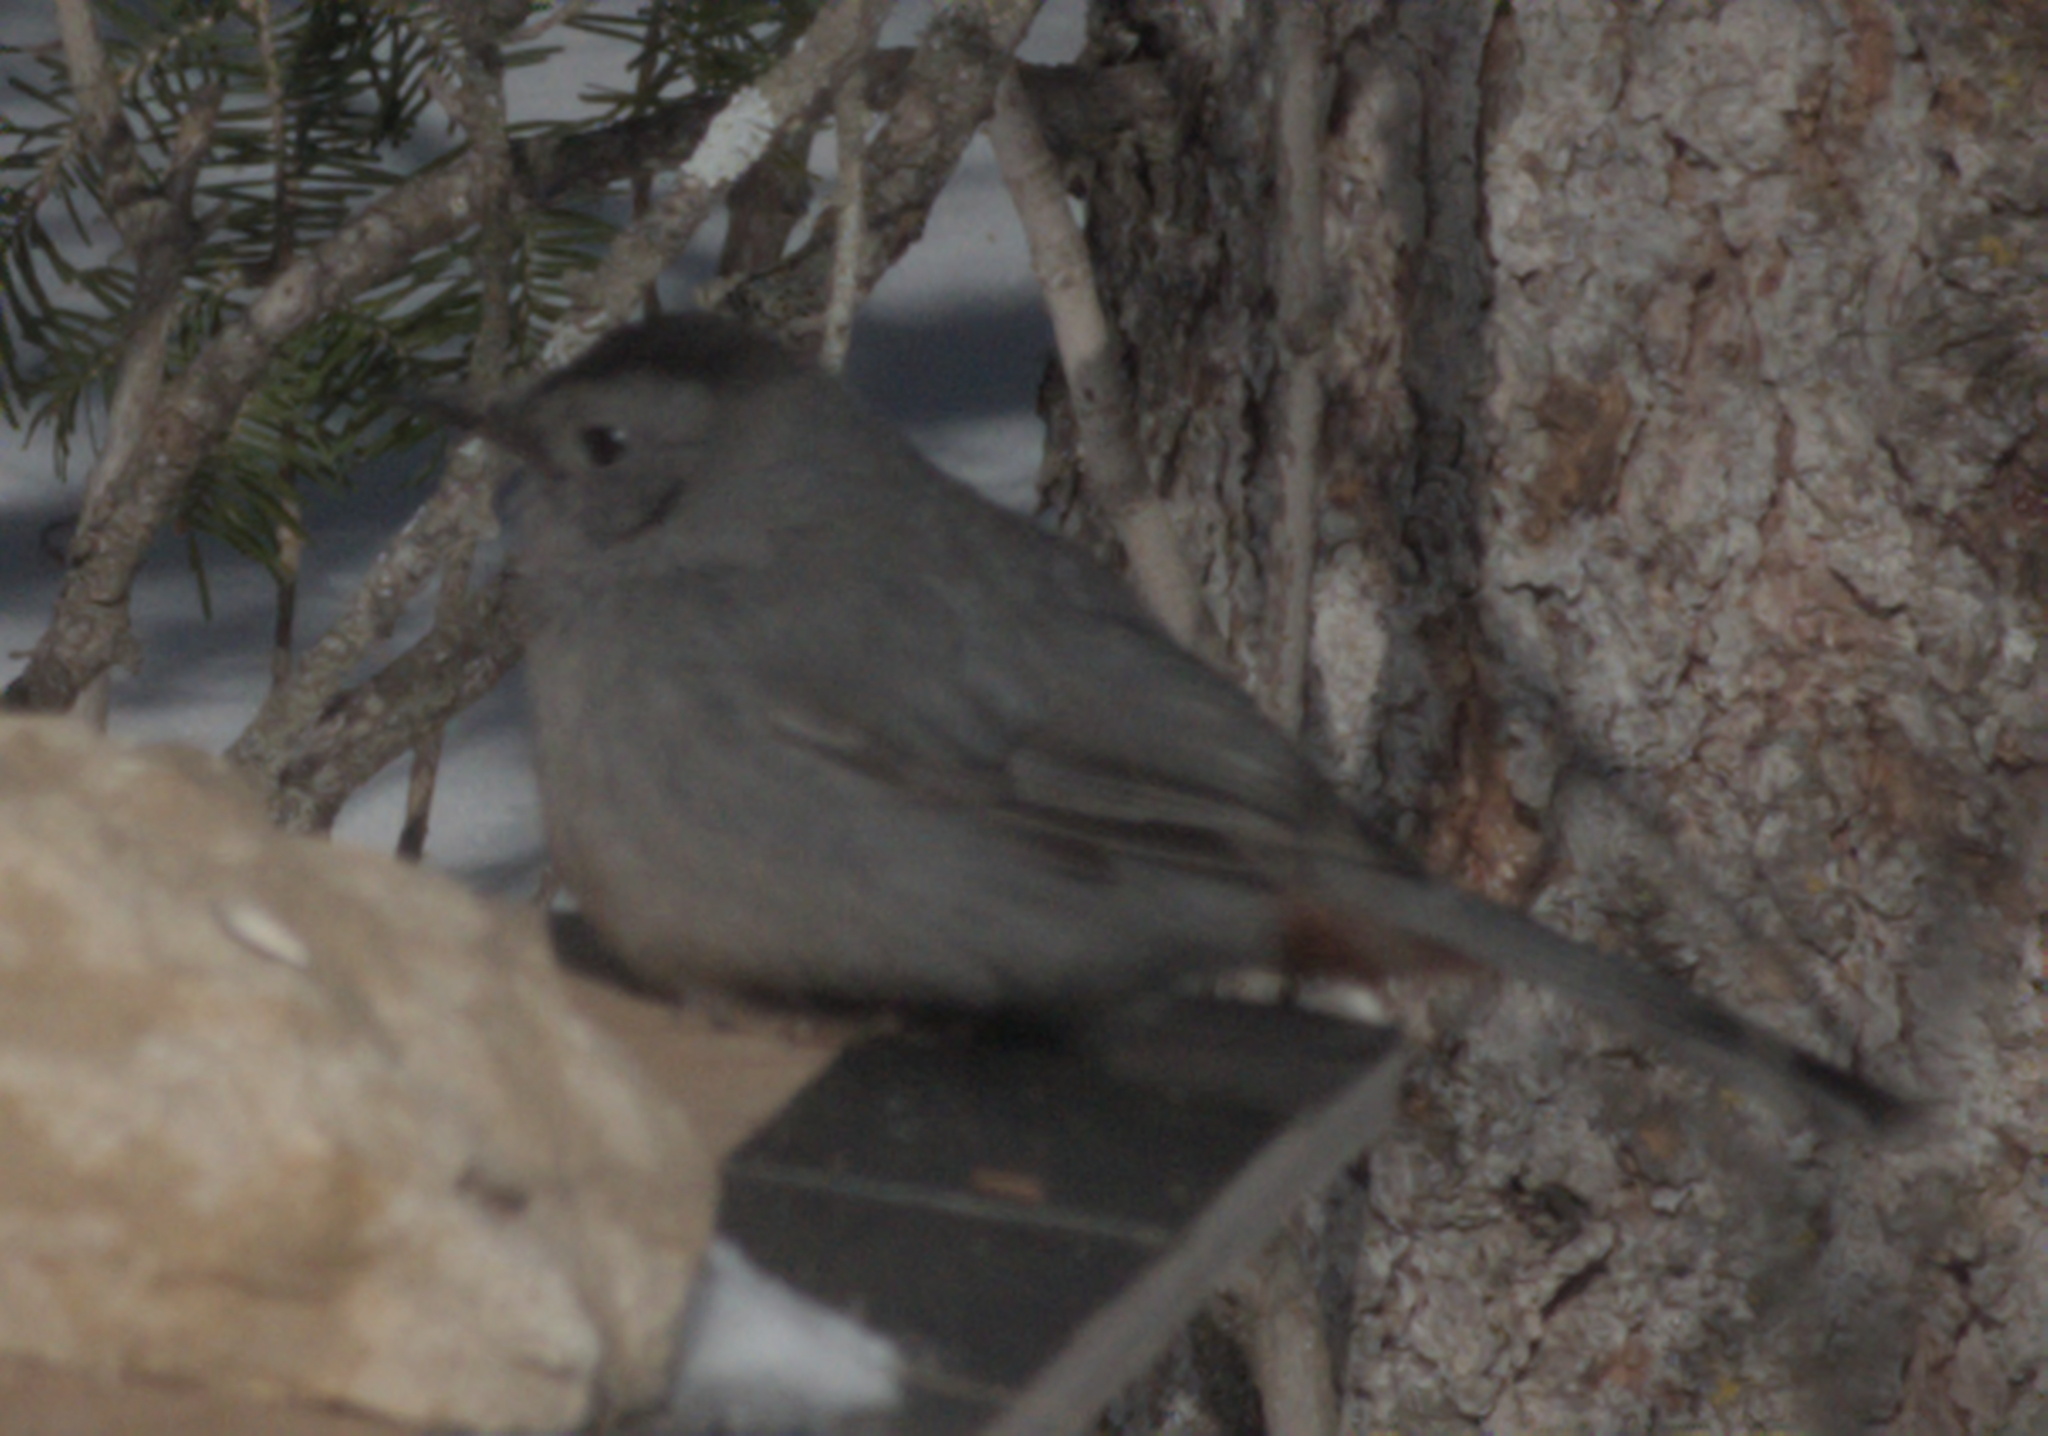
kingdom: Animalia
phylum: Chordata
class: Aves
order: Passeriformes
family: Mimidae
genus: Dumetella
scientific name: Dumetella carolinensis
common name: Gray catbird
